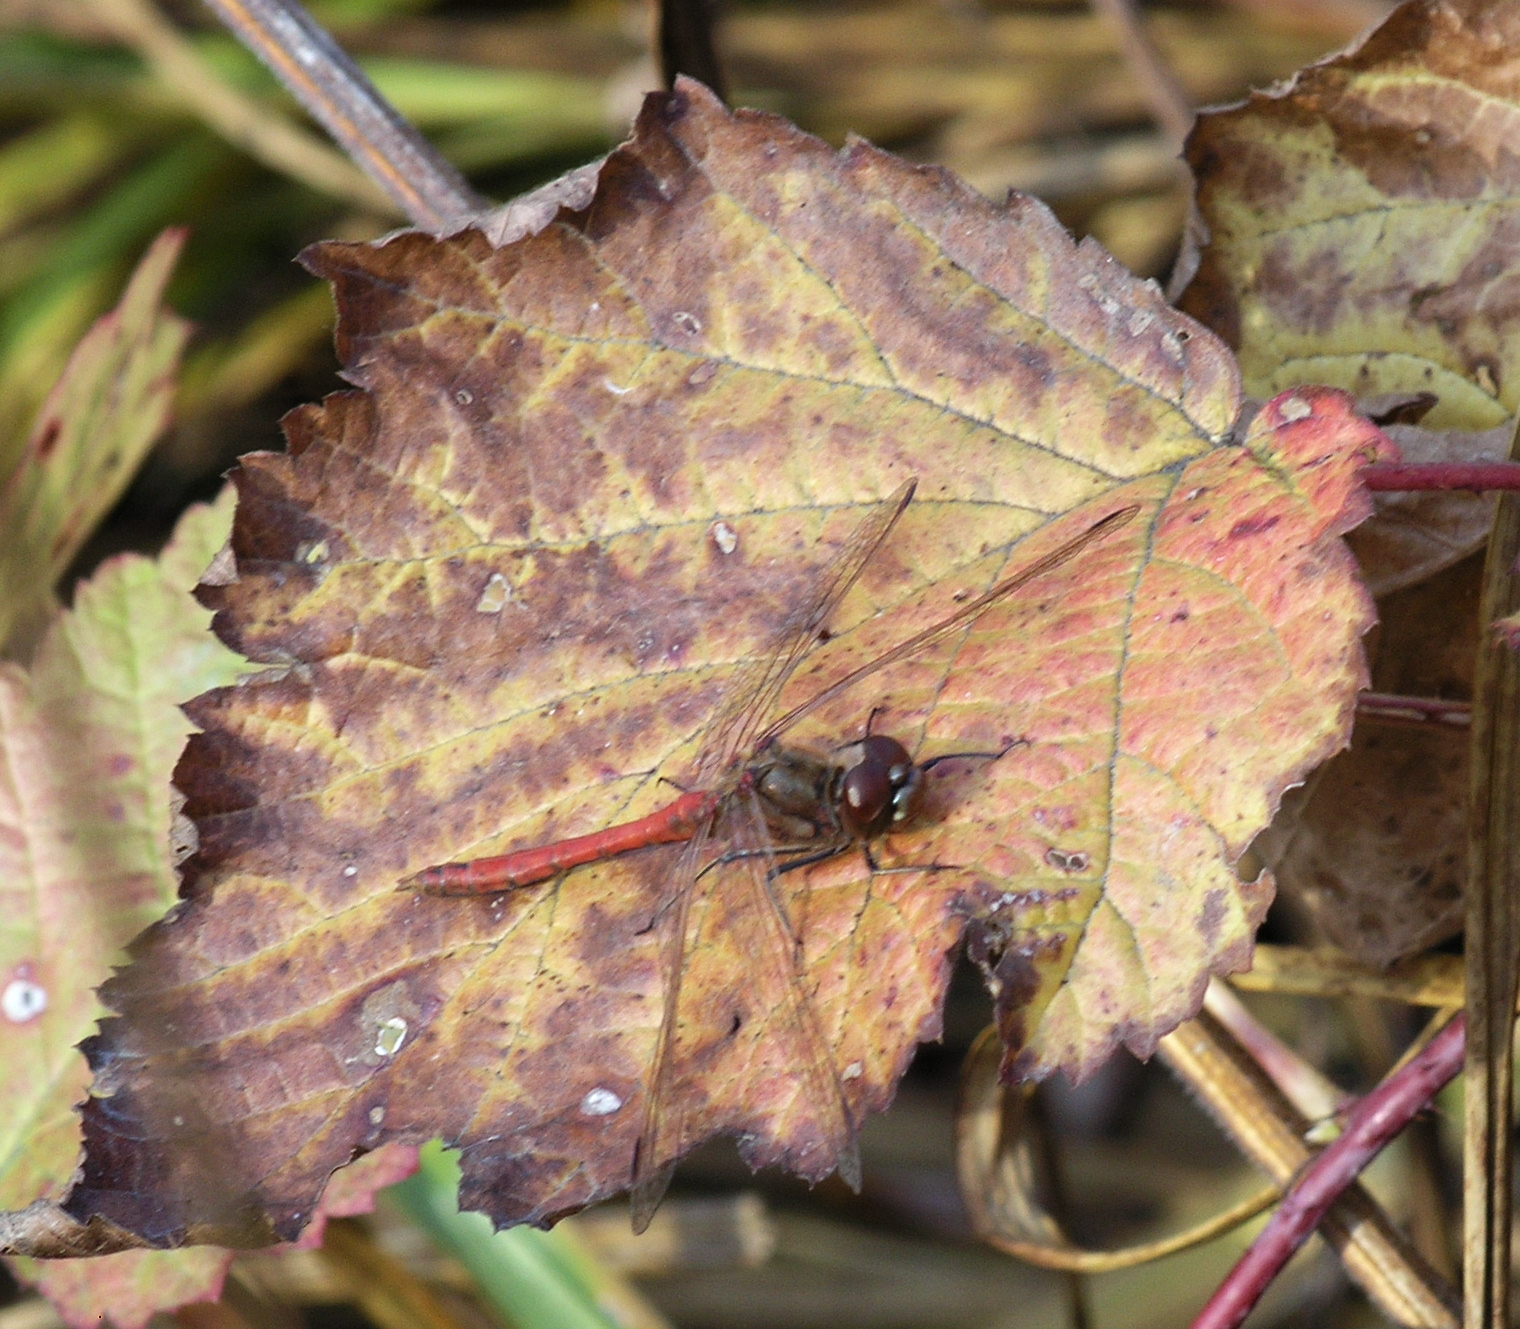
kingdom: Animalia
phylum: Arthropoda
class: Insecta
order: Odonata
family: Libellulidae
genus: Sympetrum
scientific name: Sympetrum vulgatum
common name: Vagrant darter
